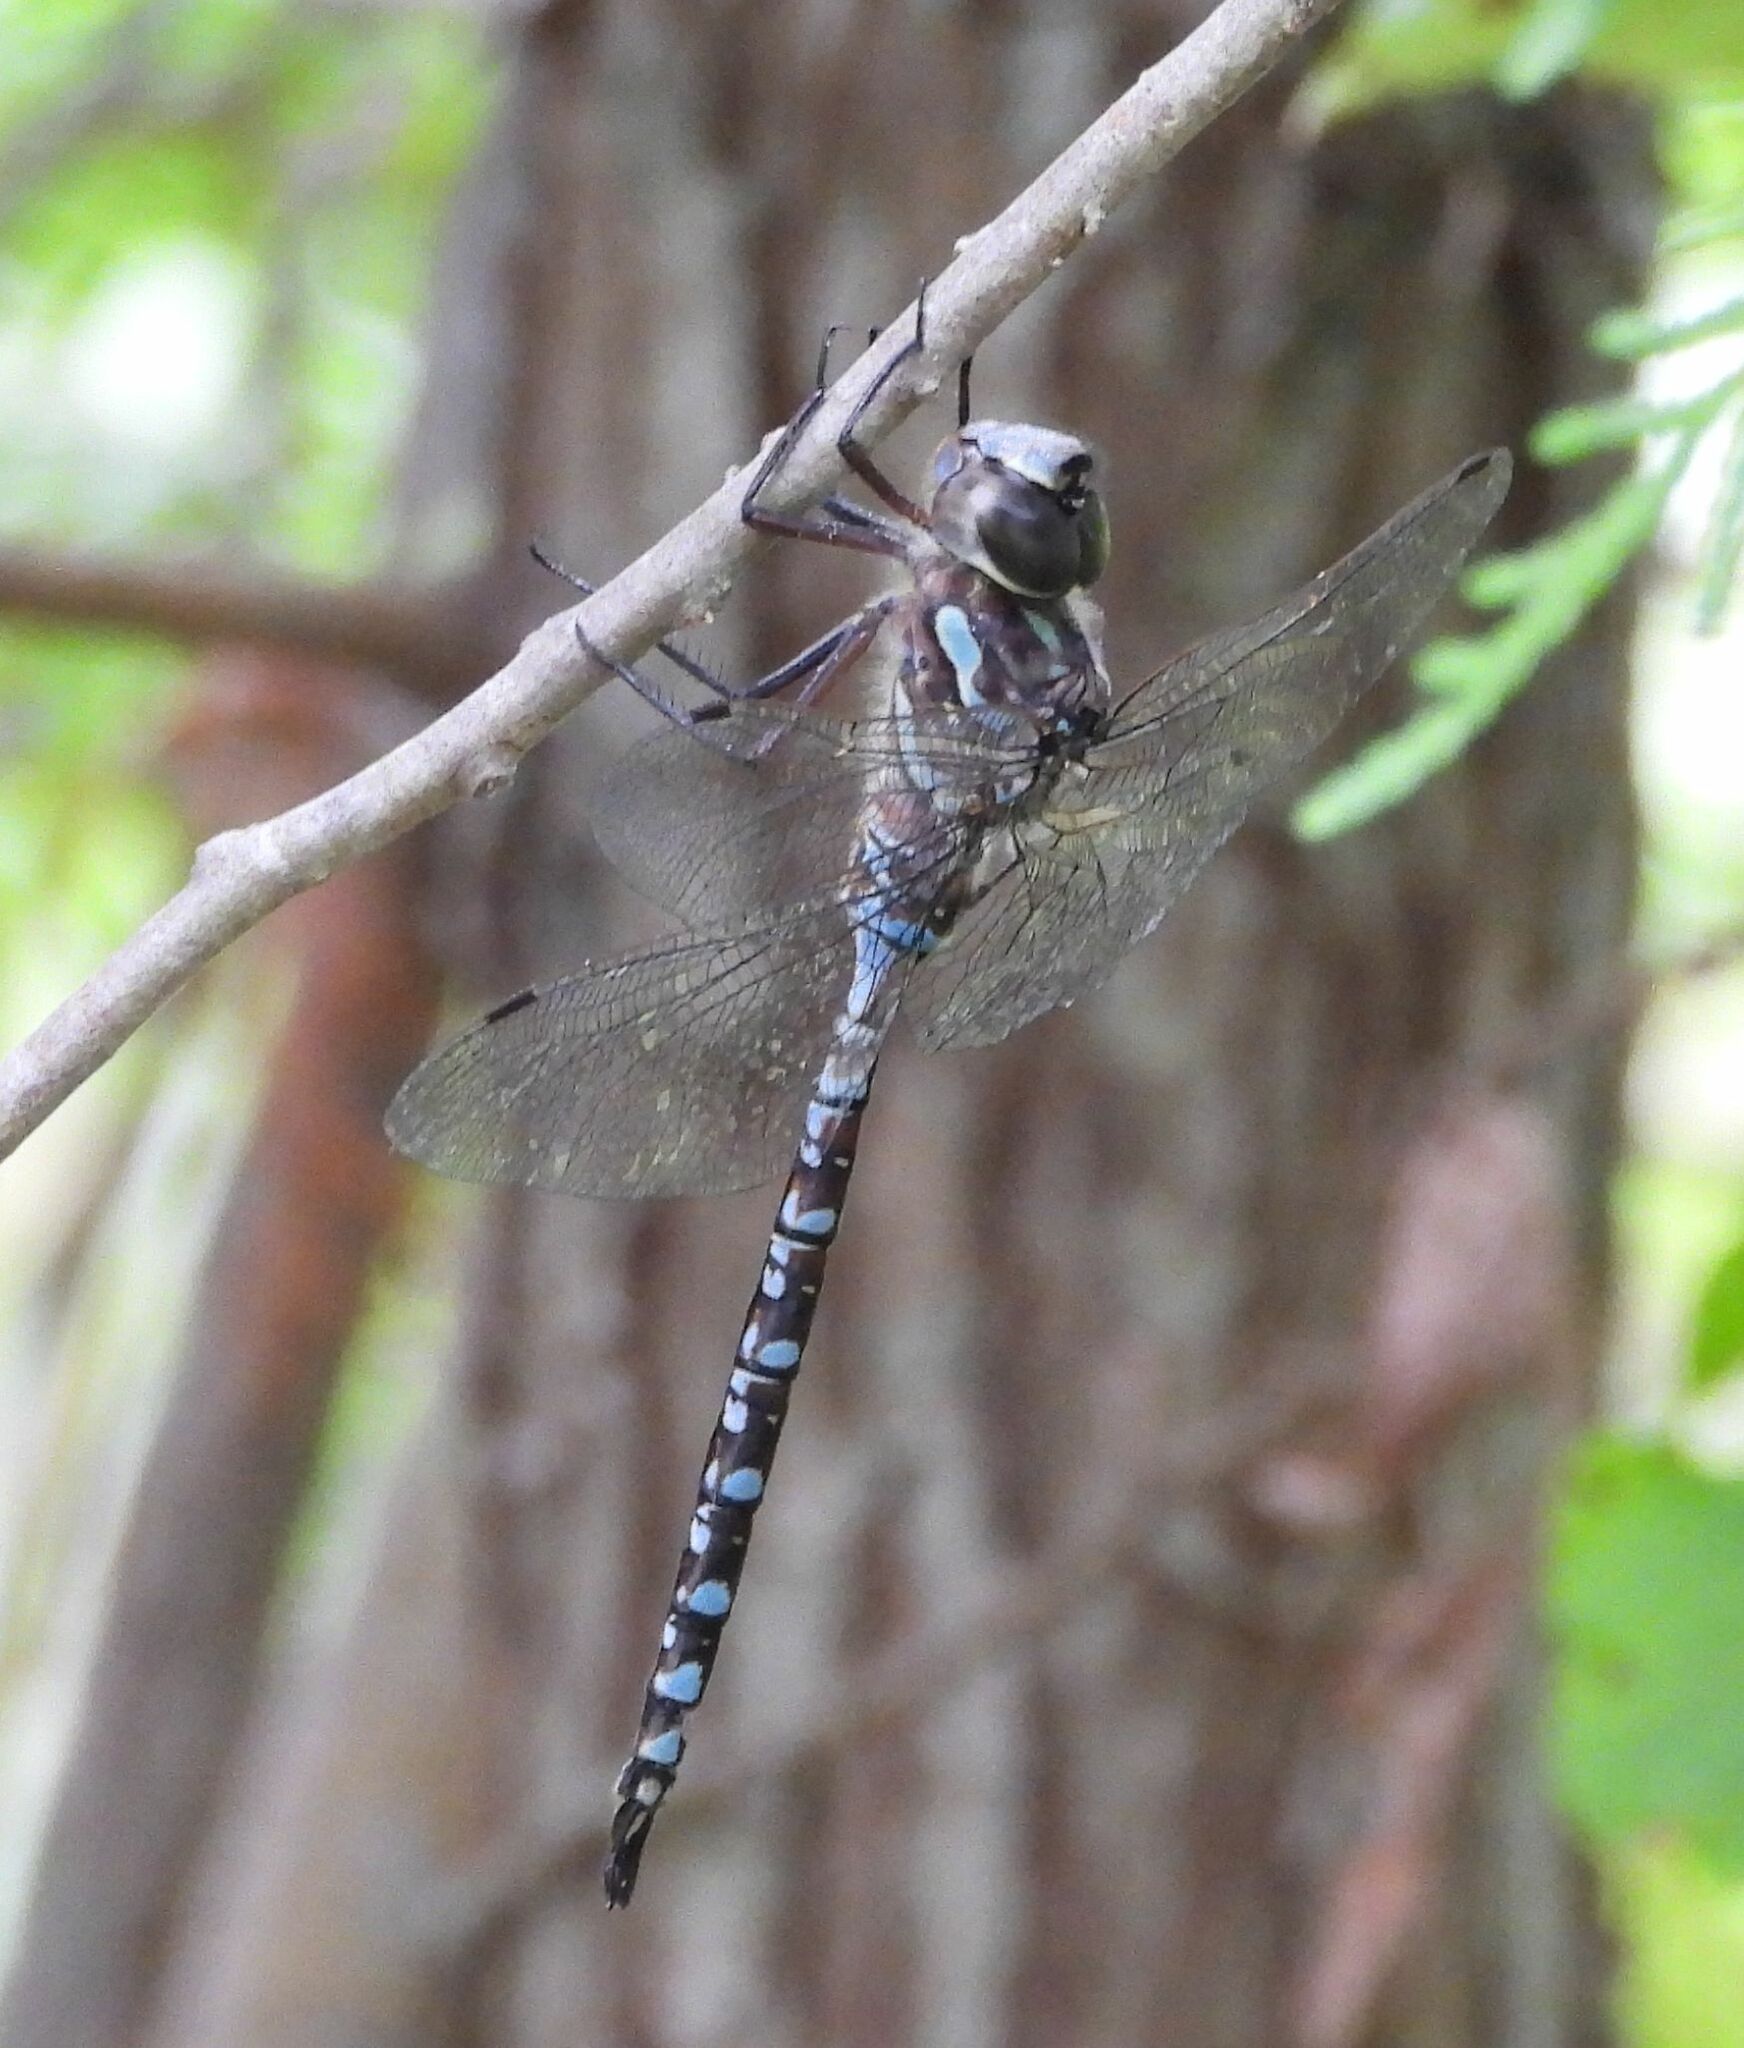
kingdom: Animalia
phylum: Arthropoda
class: Insecta
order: Odonata
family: Aeshnidae
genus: Aeshna
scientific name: Aeshna canadensis
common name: Canada darner
